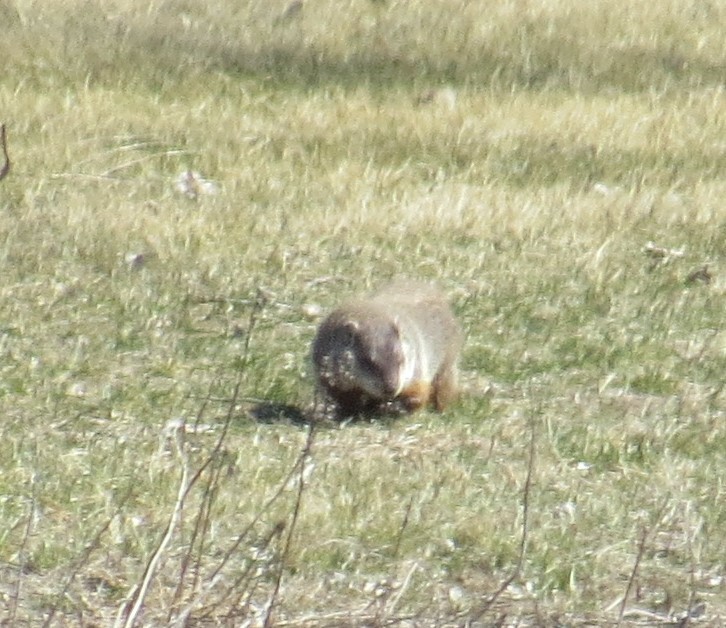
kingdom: Animalia
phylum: Chordata
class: Mammalia
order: Rodentia
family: Sciuridae
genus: Marmota
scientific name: Marmota monax
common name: Groundhog
